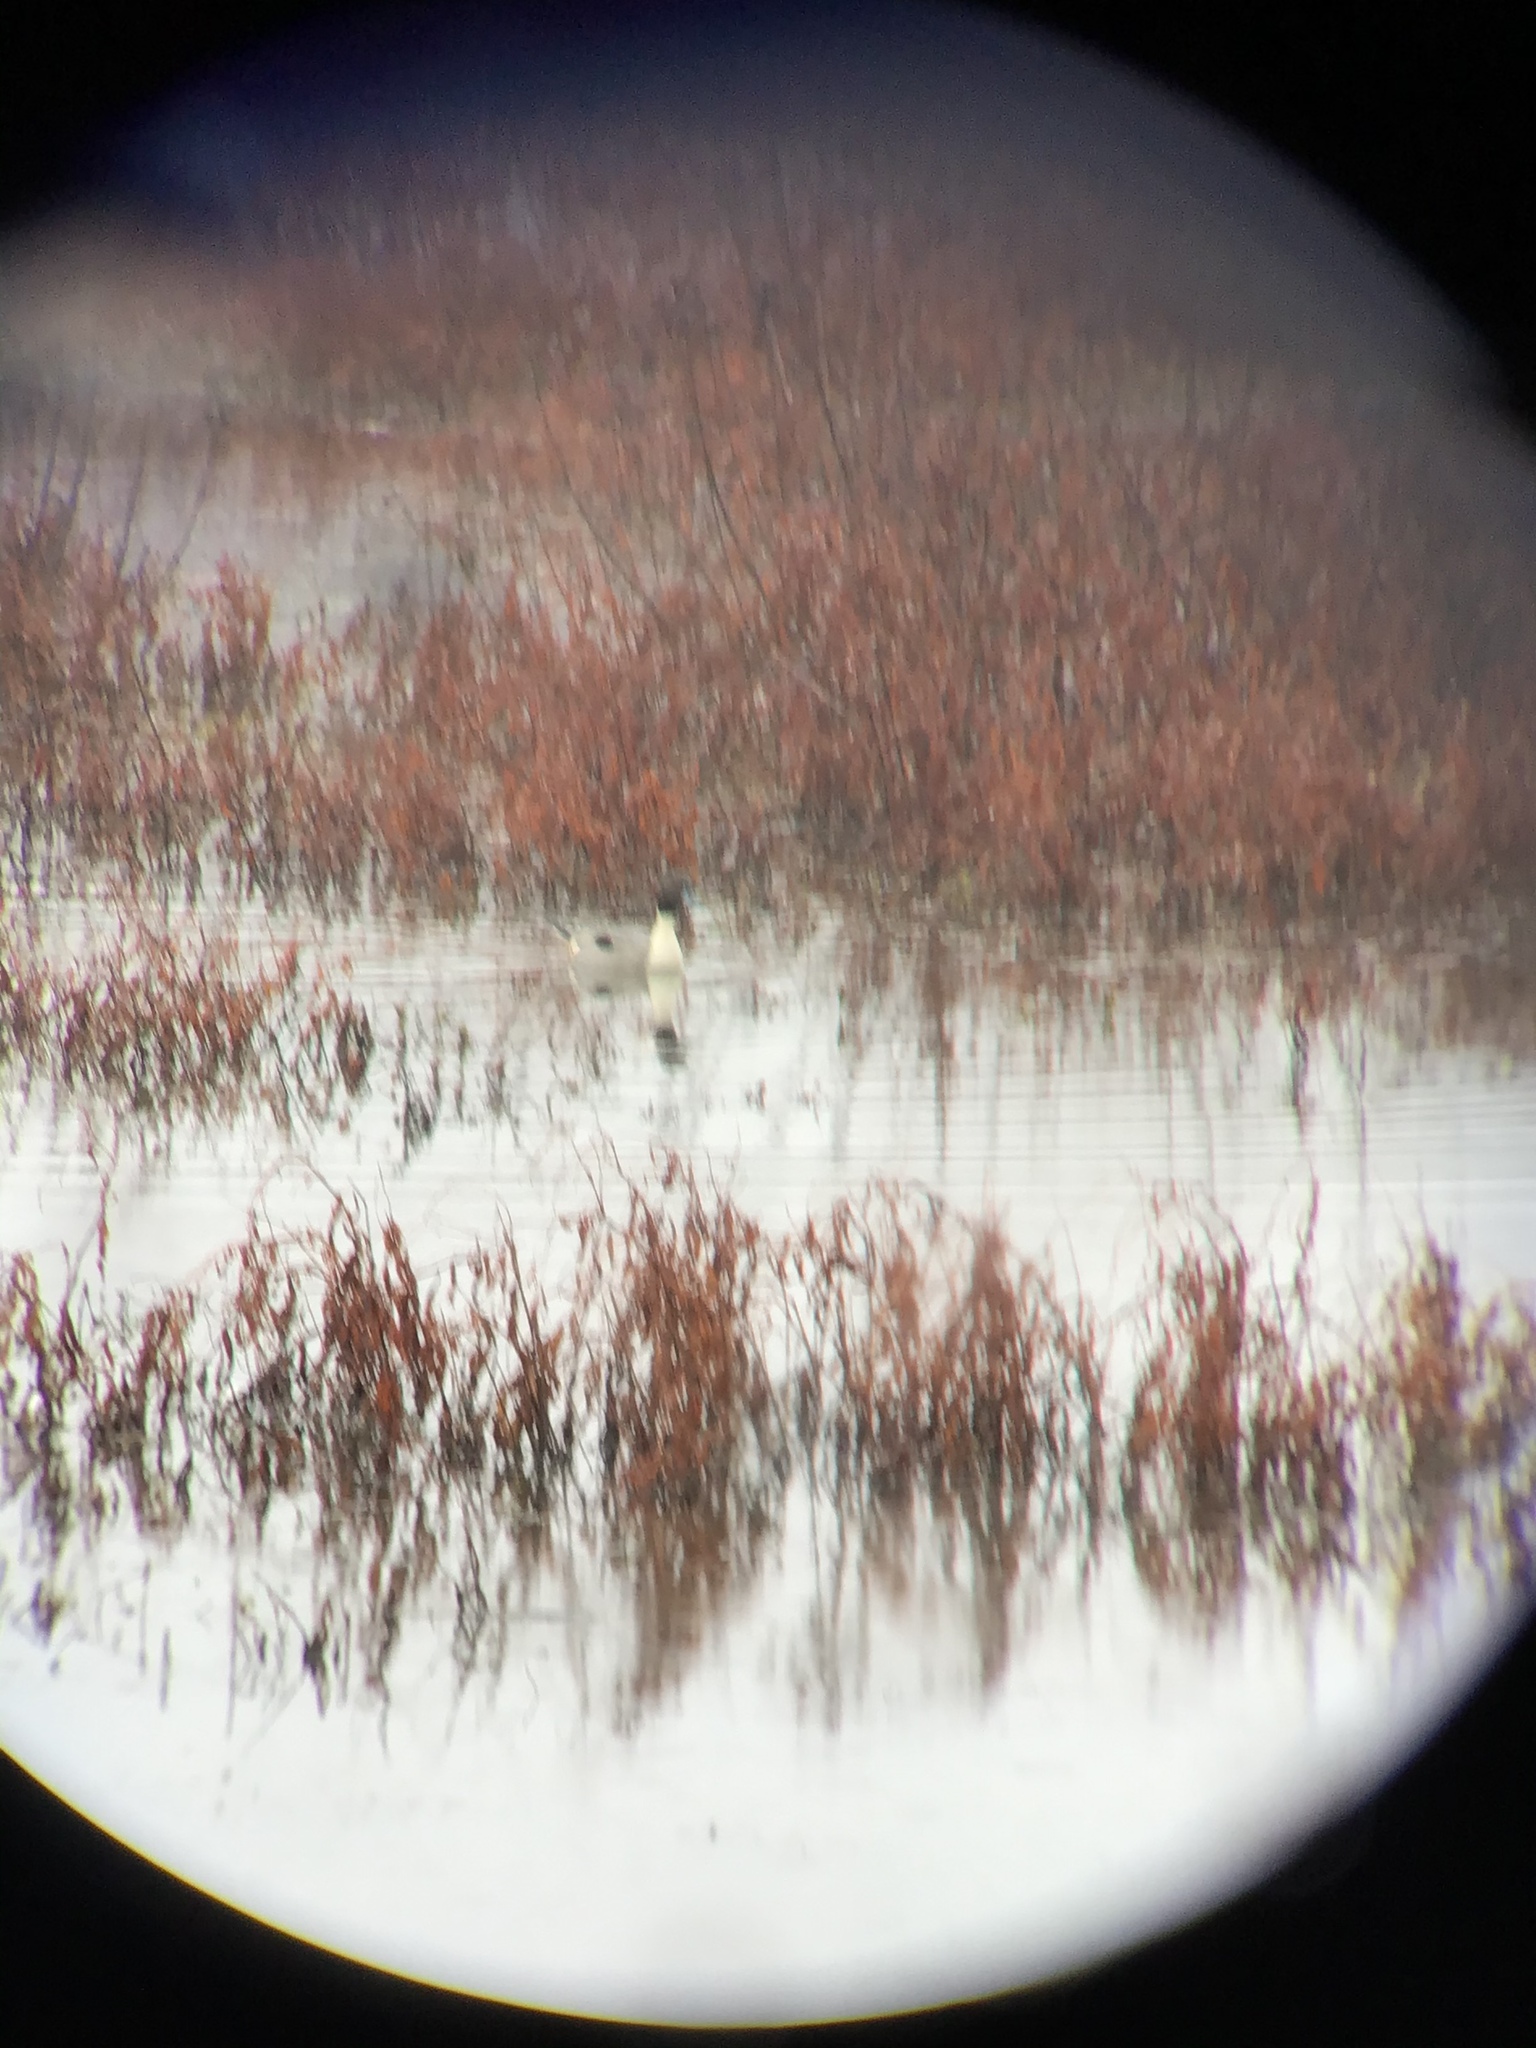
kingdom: Animalia
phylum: Chordata
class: Aves
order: Anseriformes
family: Anatidae
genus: Anas
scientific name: Anas acuta
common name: Northern pintail
